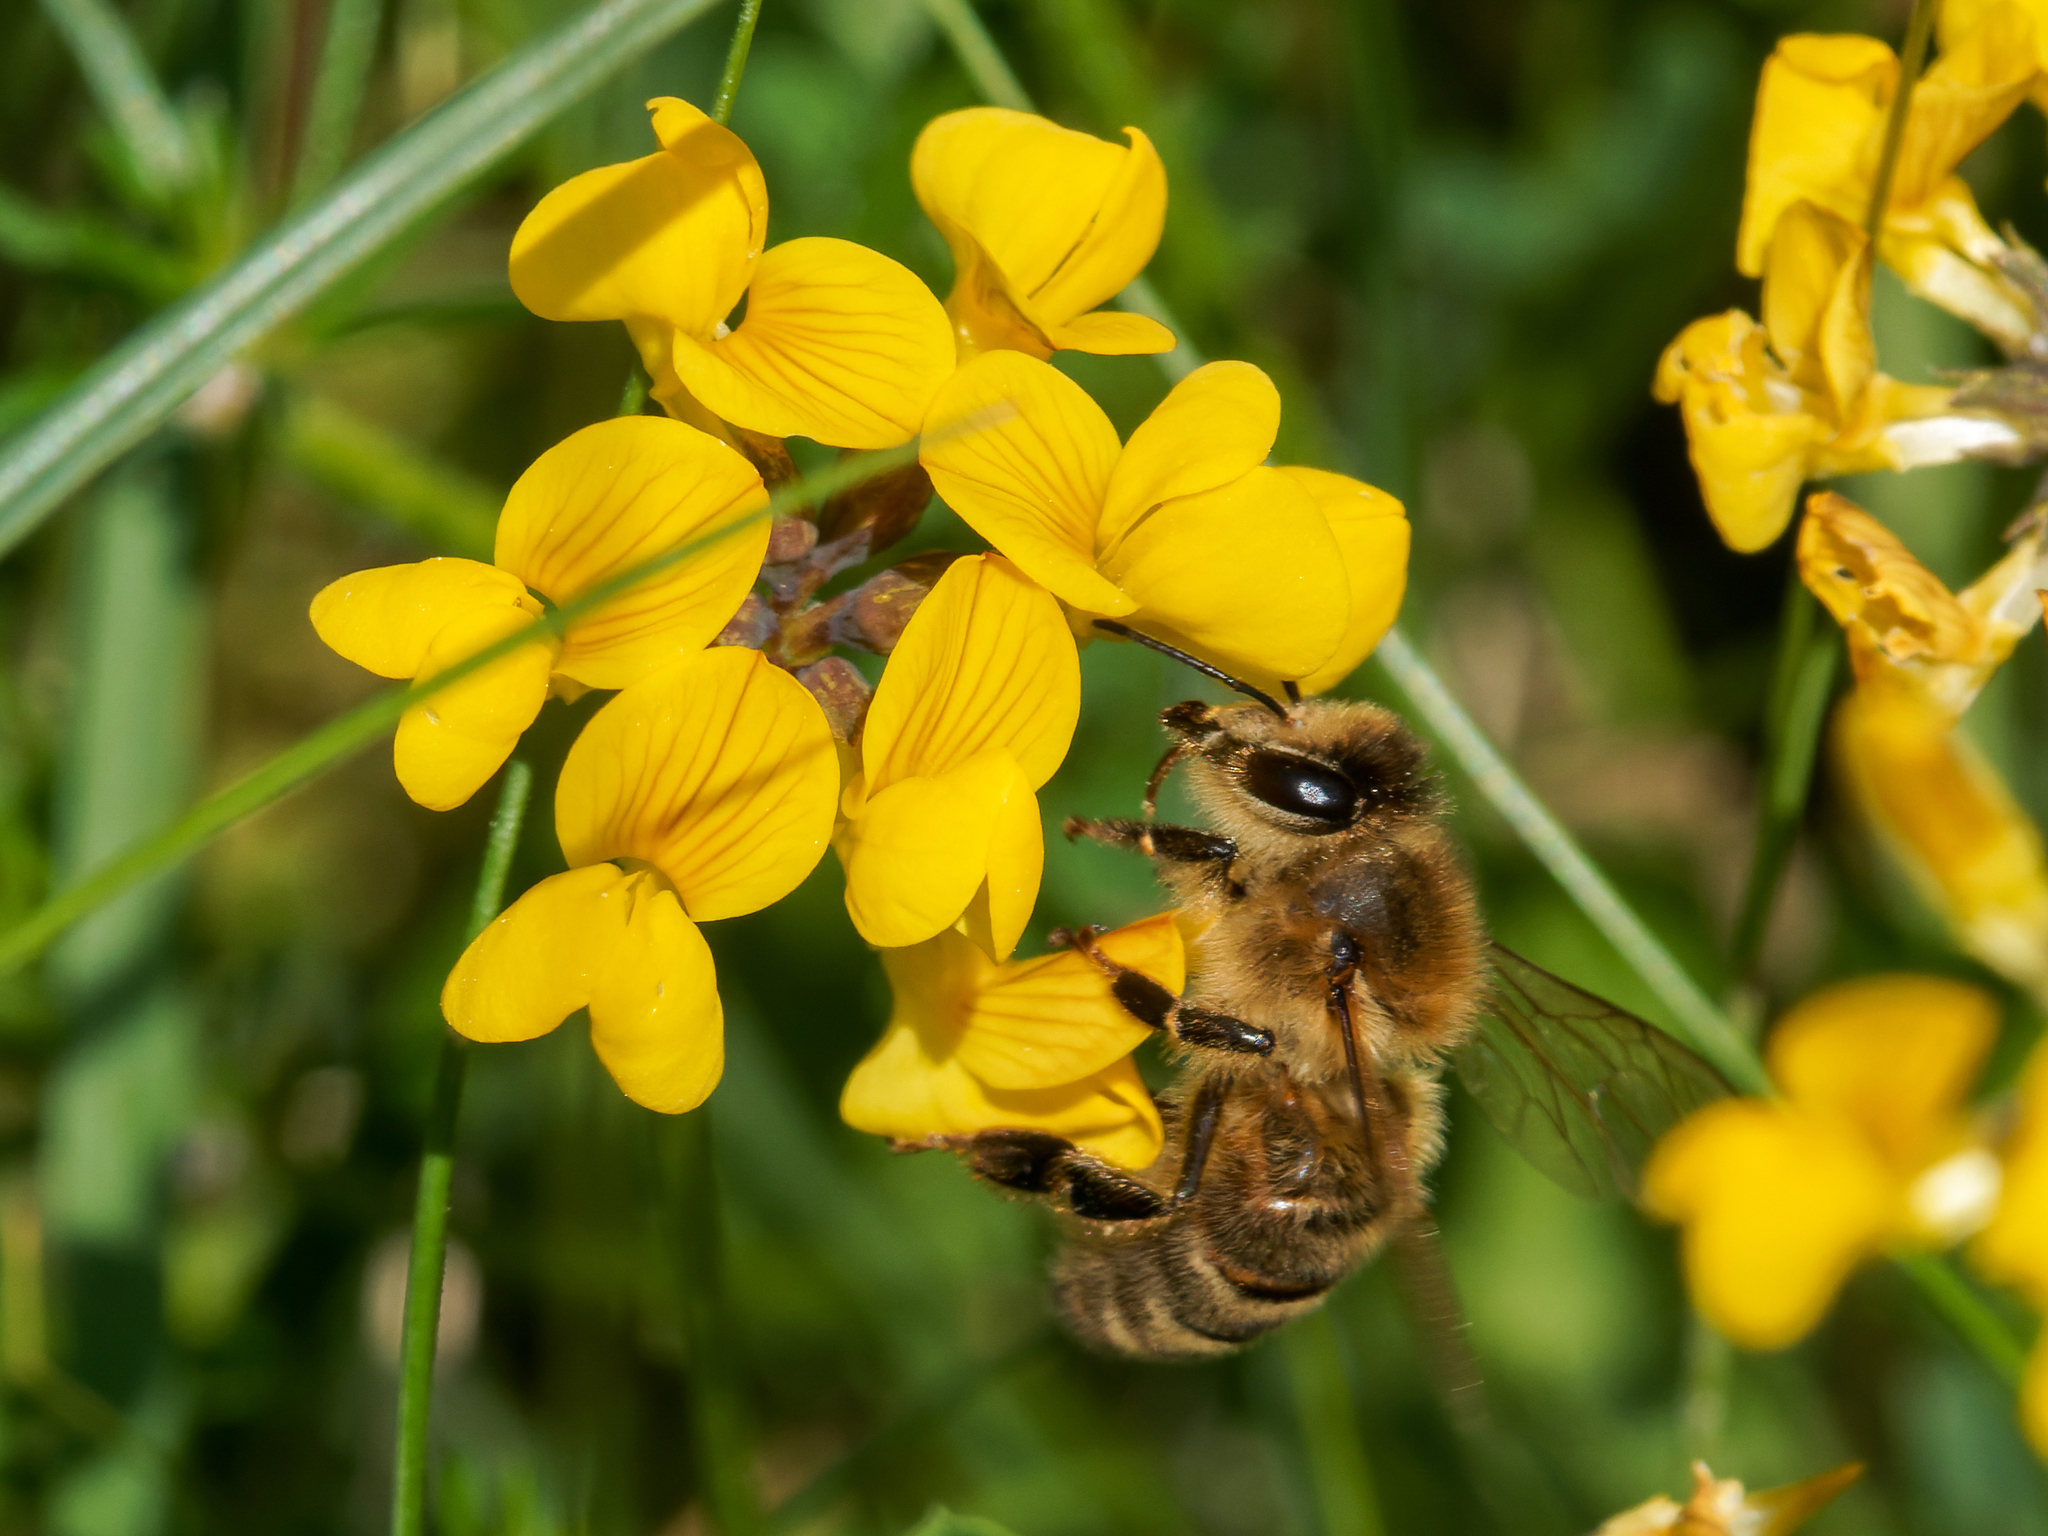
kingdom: Plantae
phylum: Tracheophyta
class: Magnoliopsida
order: Fabales
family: Fabaceae
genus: Lotus
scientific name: Lotus corniculatus
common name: Common bird's-foot-trefoil
